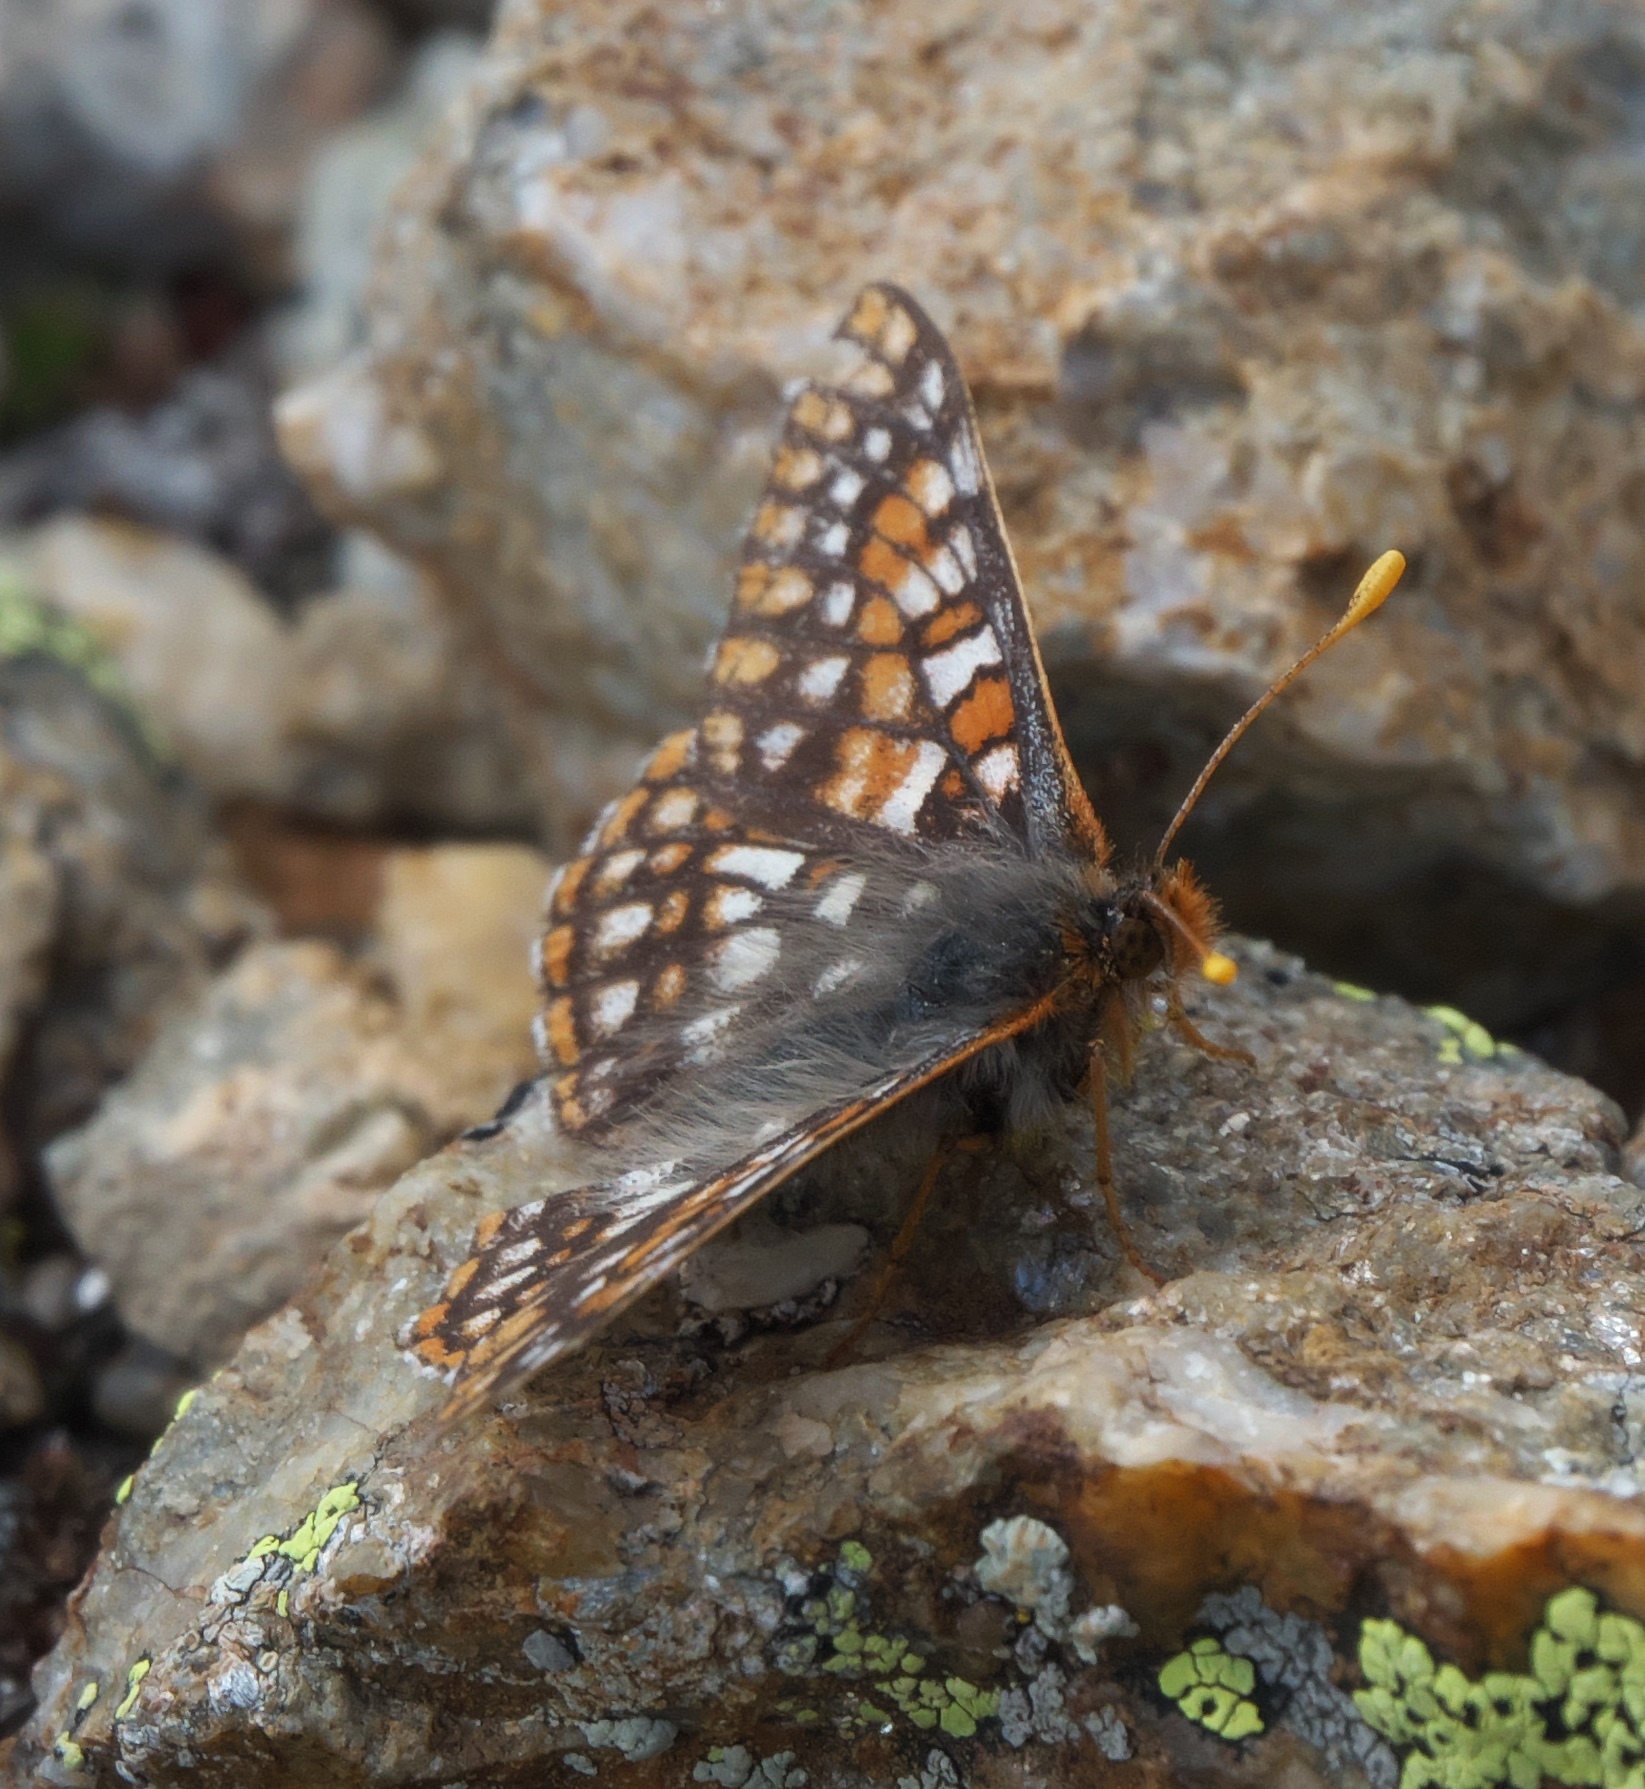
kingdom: Animalia
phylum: Arthropoda
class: Insecta
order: Lepidoptera
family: Nymphalidae
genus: Occidryas
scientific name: Occidryas anicia
